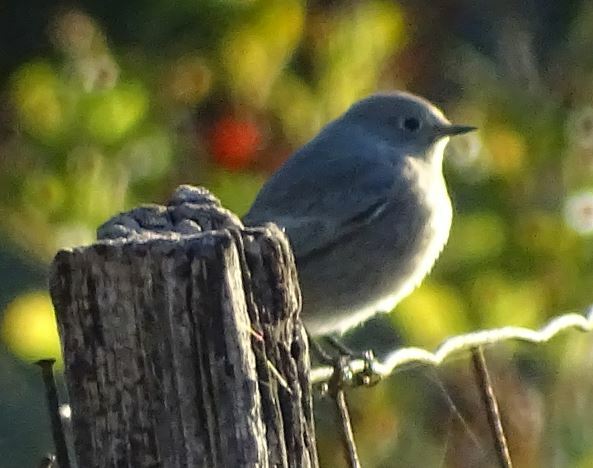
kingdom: Animalia
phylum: Chordata
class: Aves
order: Passeriformes
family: Muscicapidae
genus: Phoenicurus
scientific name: Phoenicurus ochruros
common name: Black redstart
